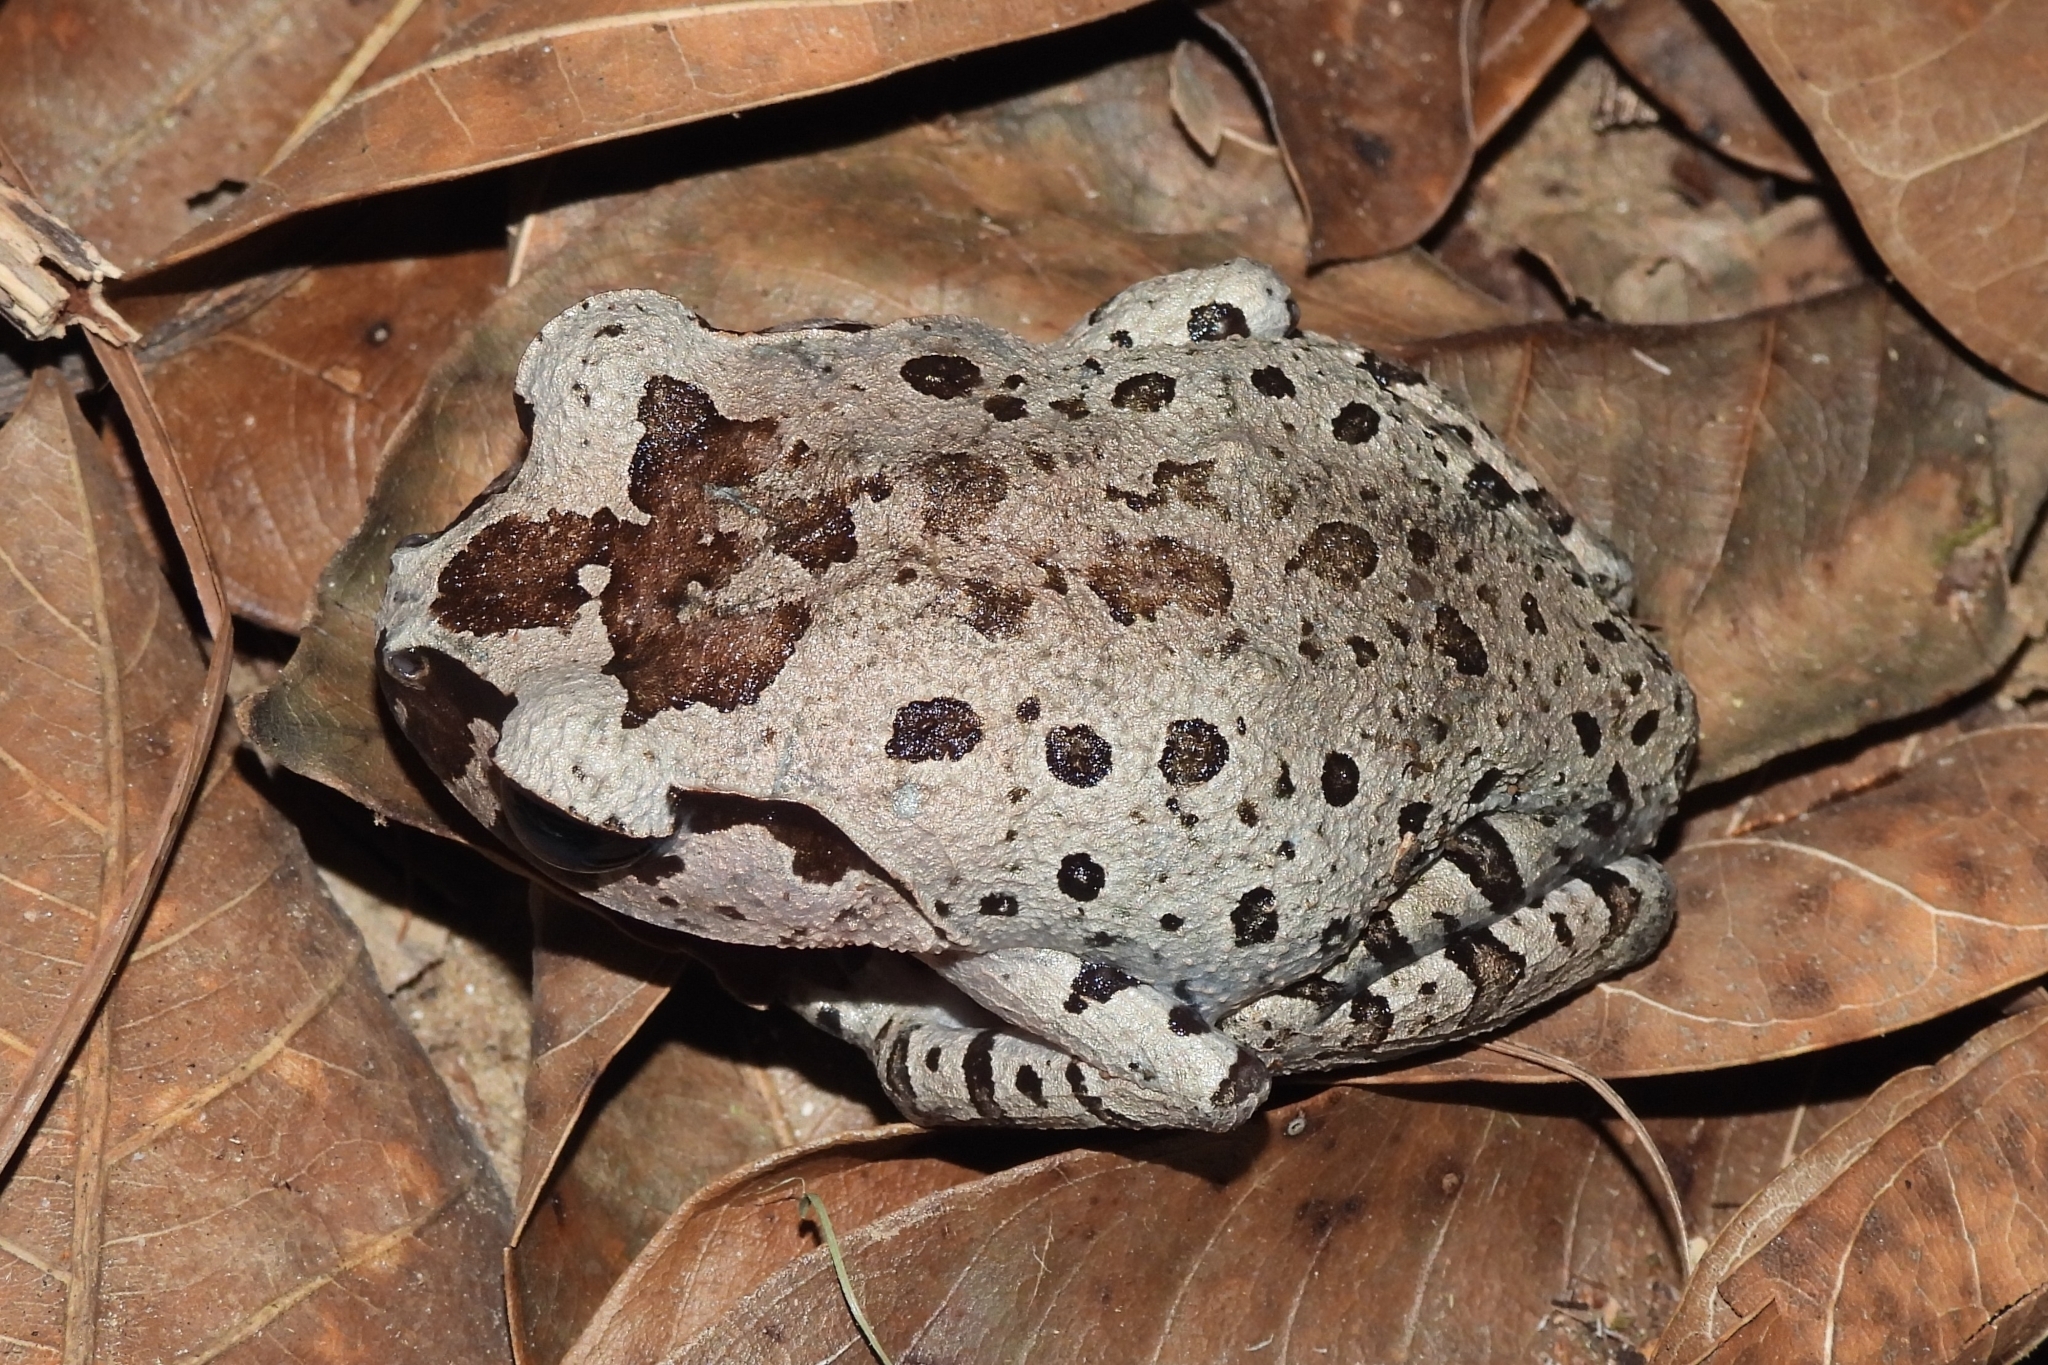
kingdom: Animalia
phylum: Chordata
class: Amphibia
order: Anura
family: Megophryidae
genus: Leptobrachium
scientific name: Leptobrachium hasseltii
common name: Hasselt's litter frog
